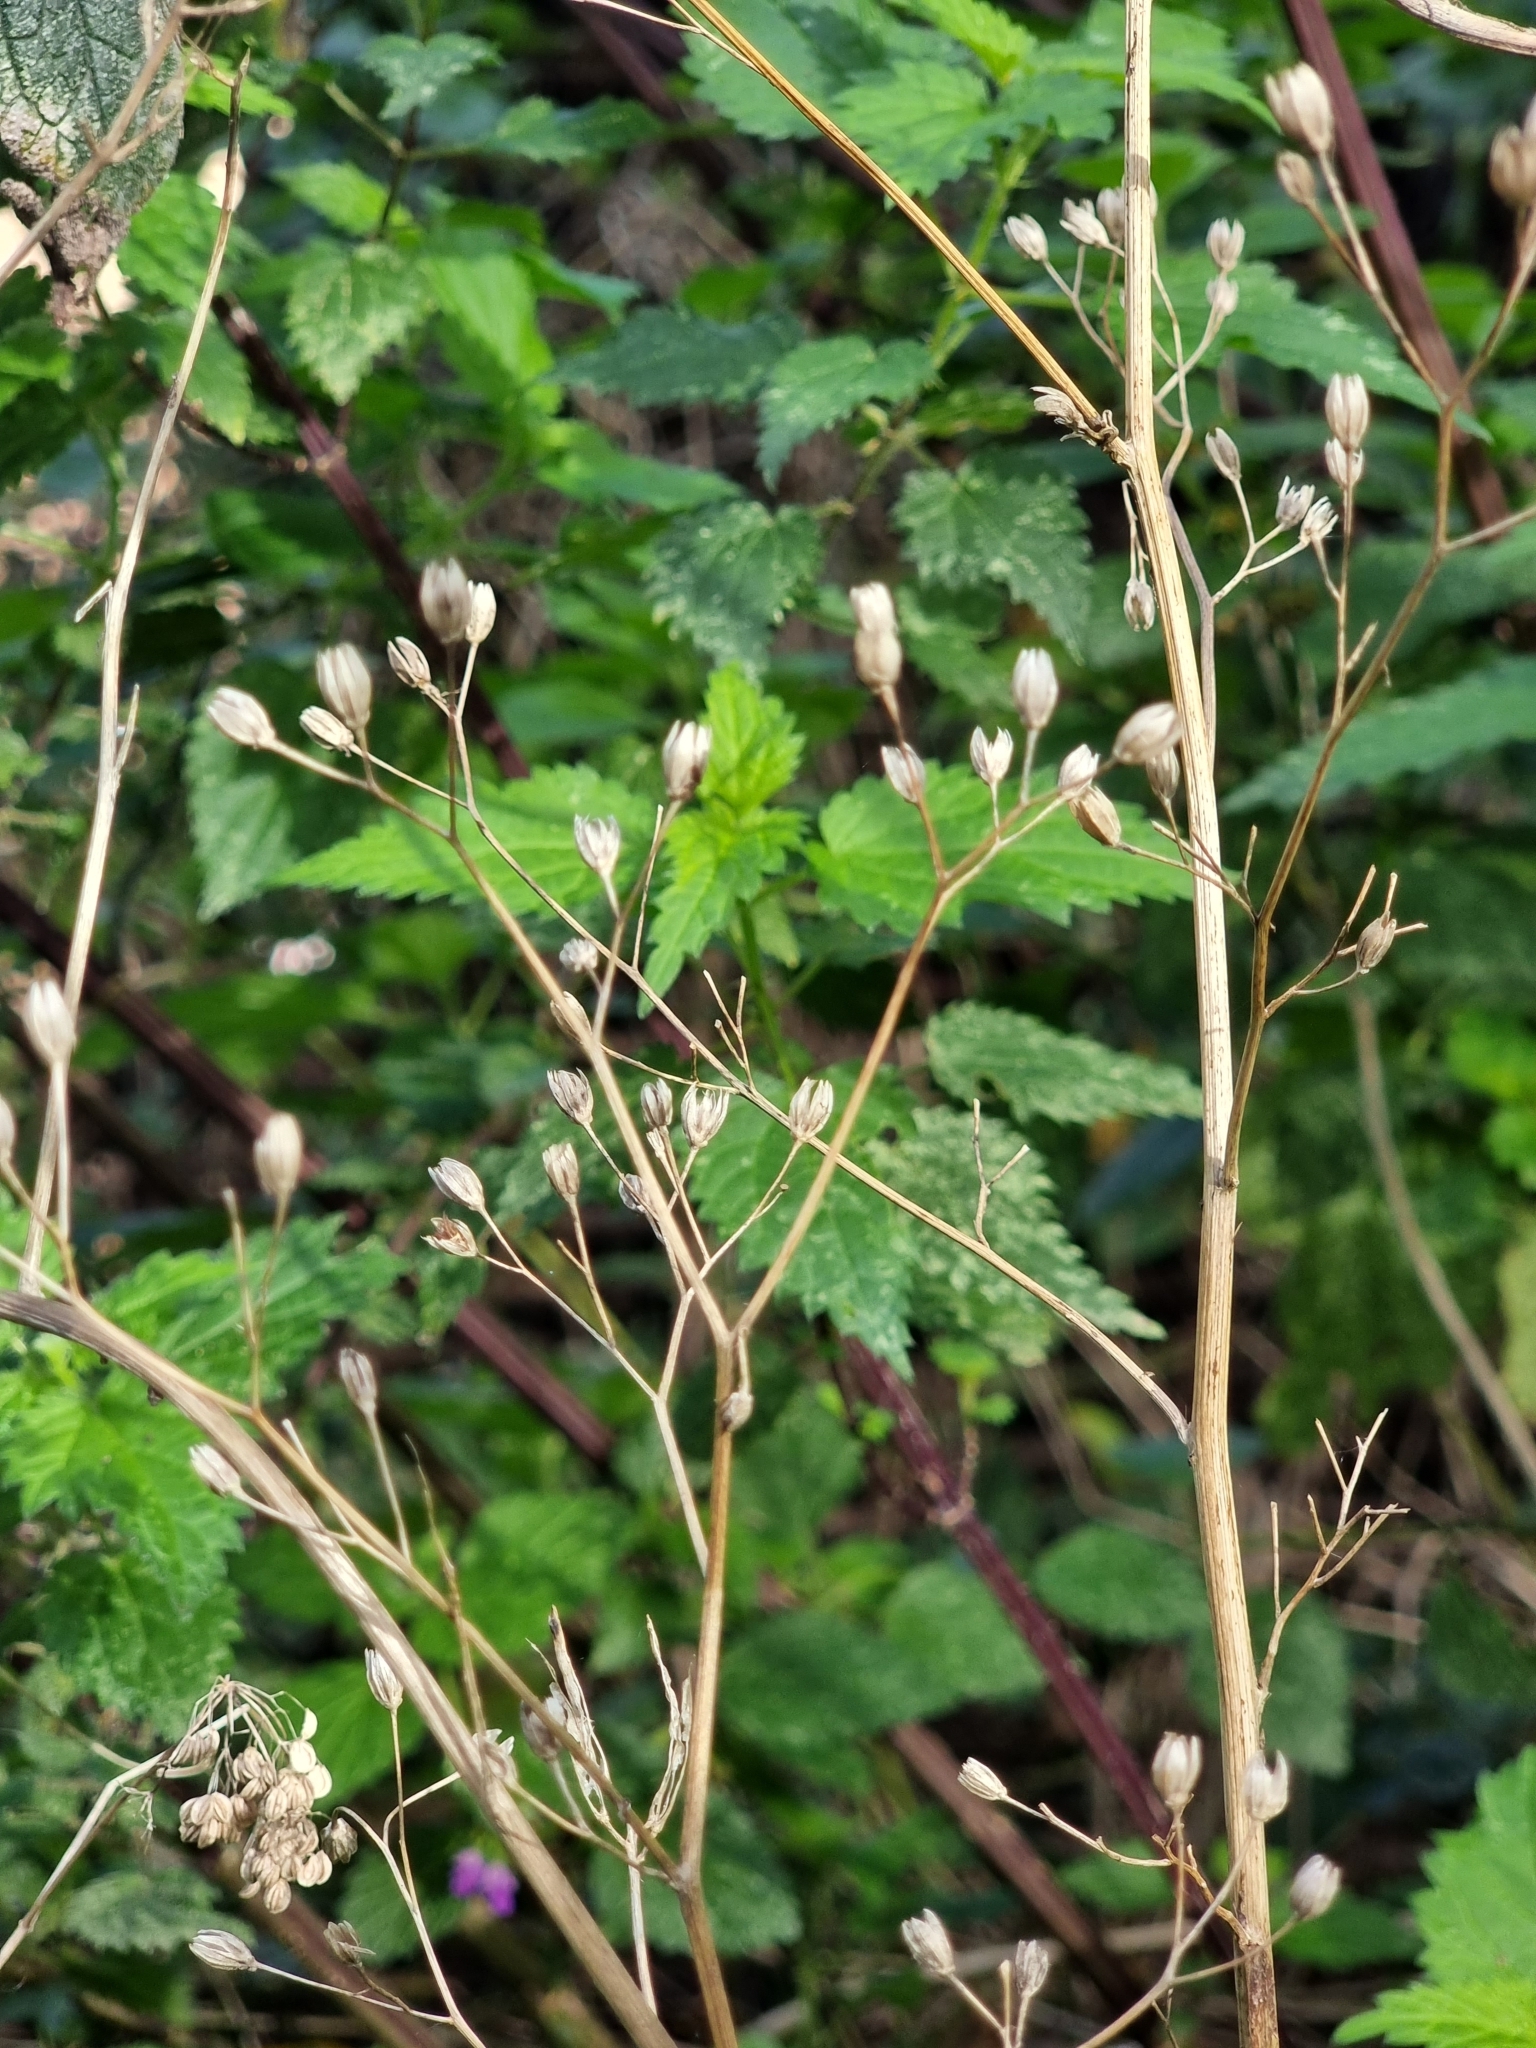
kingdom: Plantae
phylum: Tracheophyta
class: Magnoliopsida
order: Asterales
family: Asteraceae
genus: Lapsana
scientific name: Lapsana communis
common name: Nipplewort
